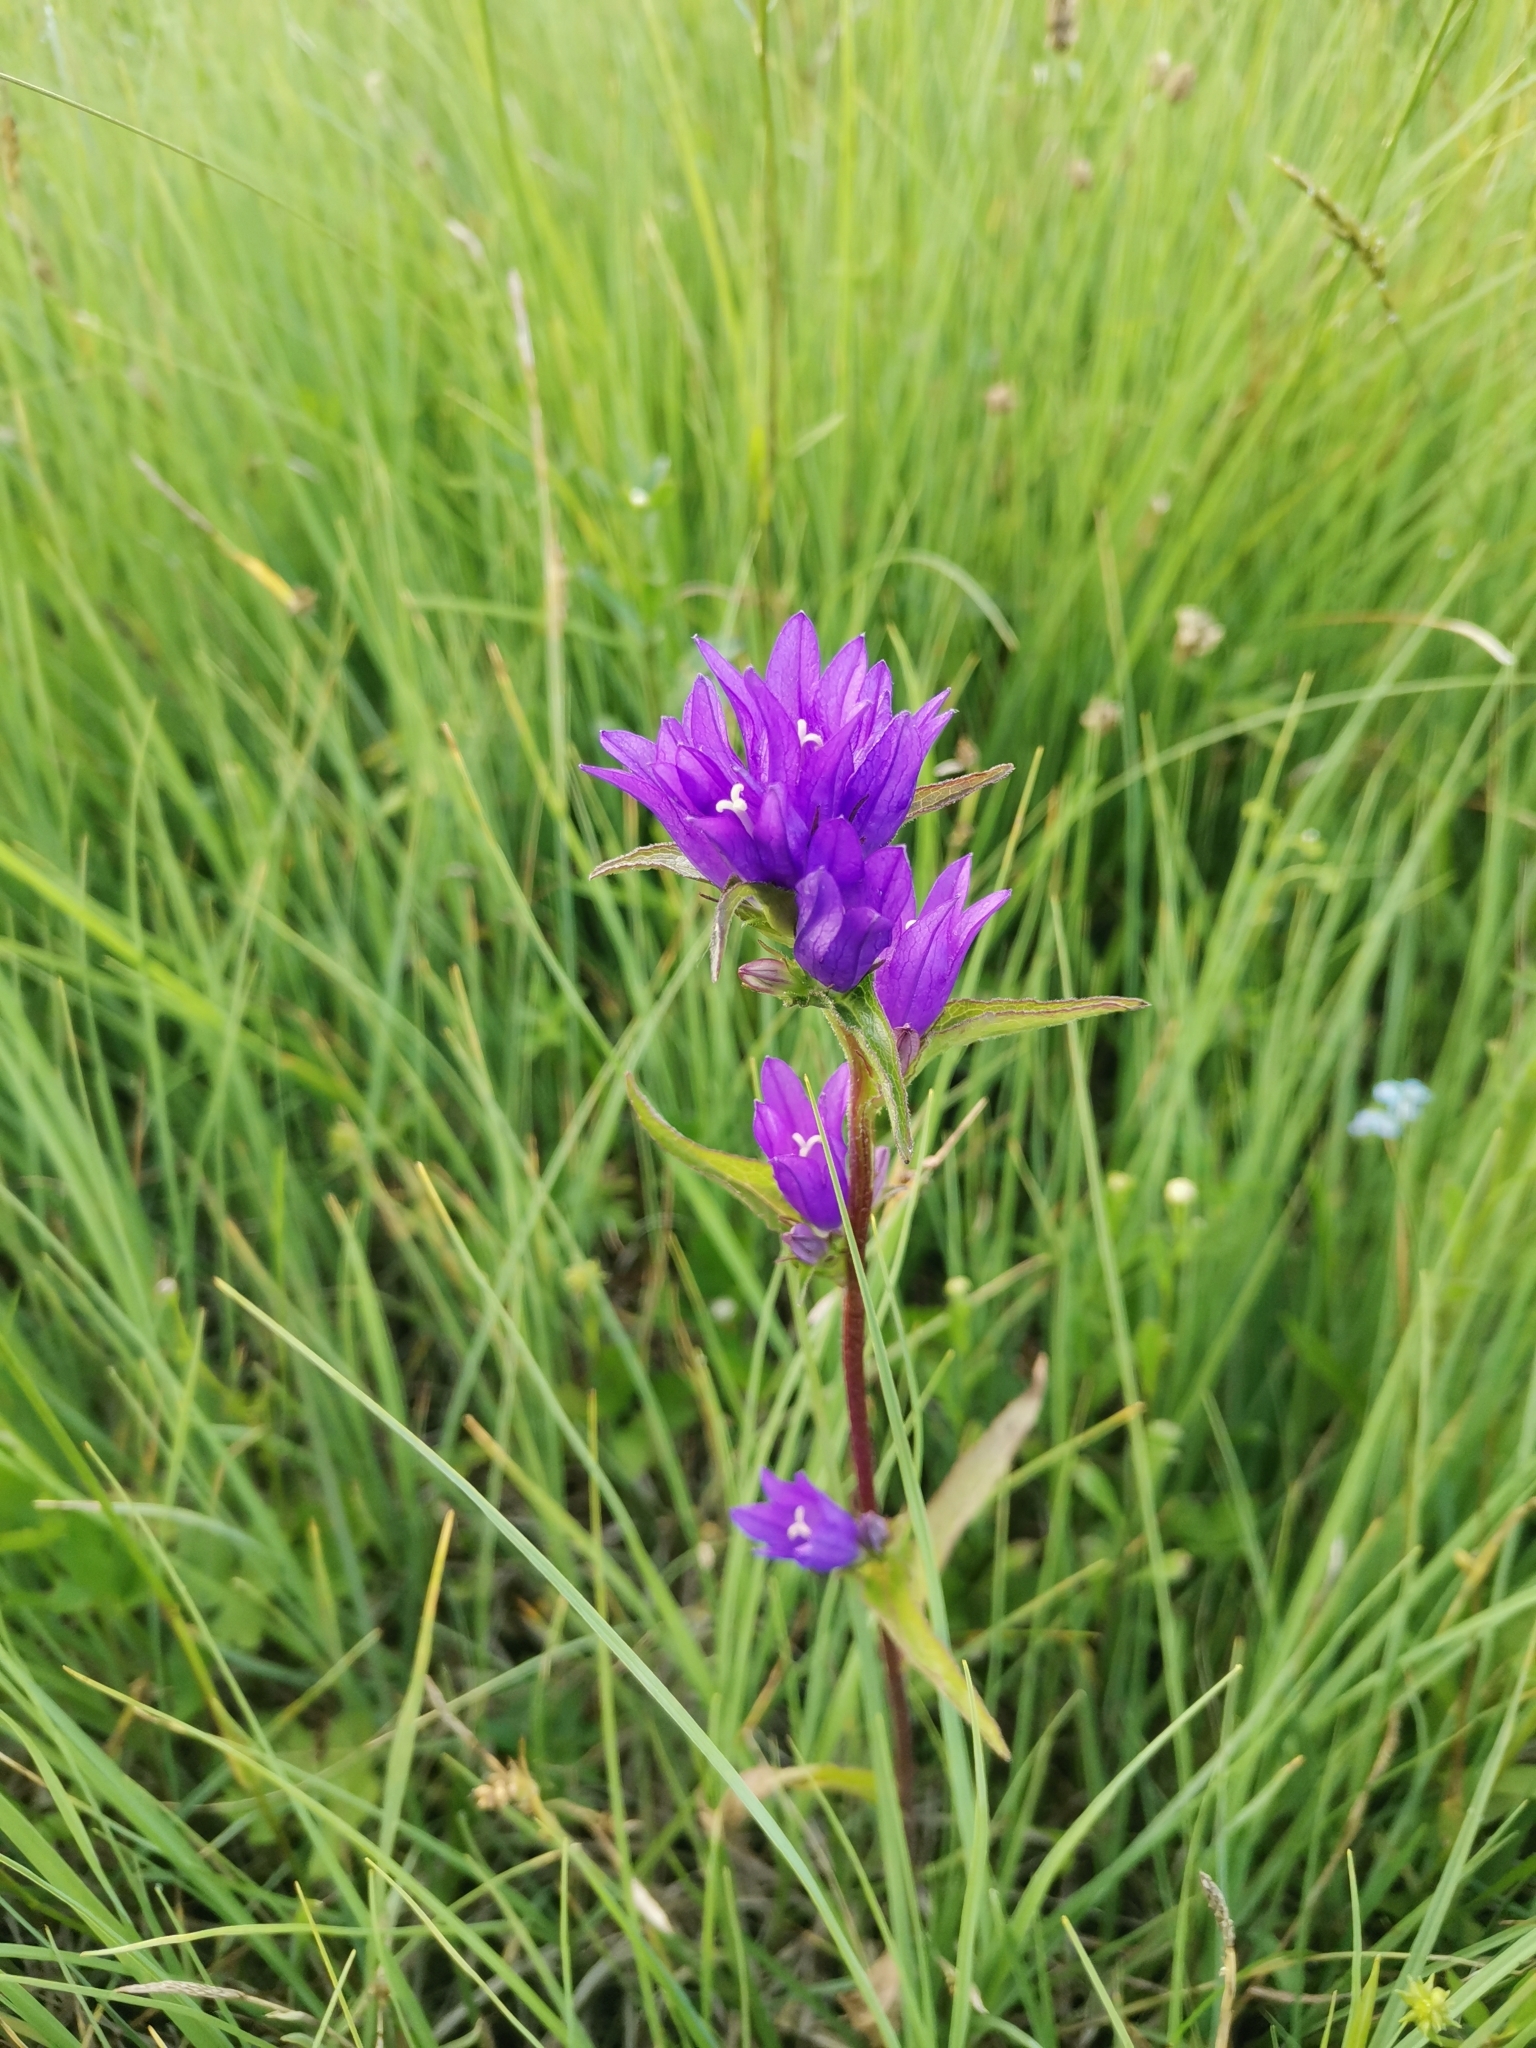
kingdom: Plantae
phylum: Tracheophyta
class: Magnoliopsida
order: Asterales
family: Campanulaceae
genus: Campanula
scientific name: Campanula glomerata
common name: Clustered bellflower
